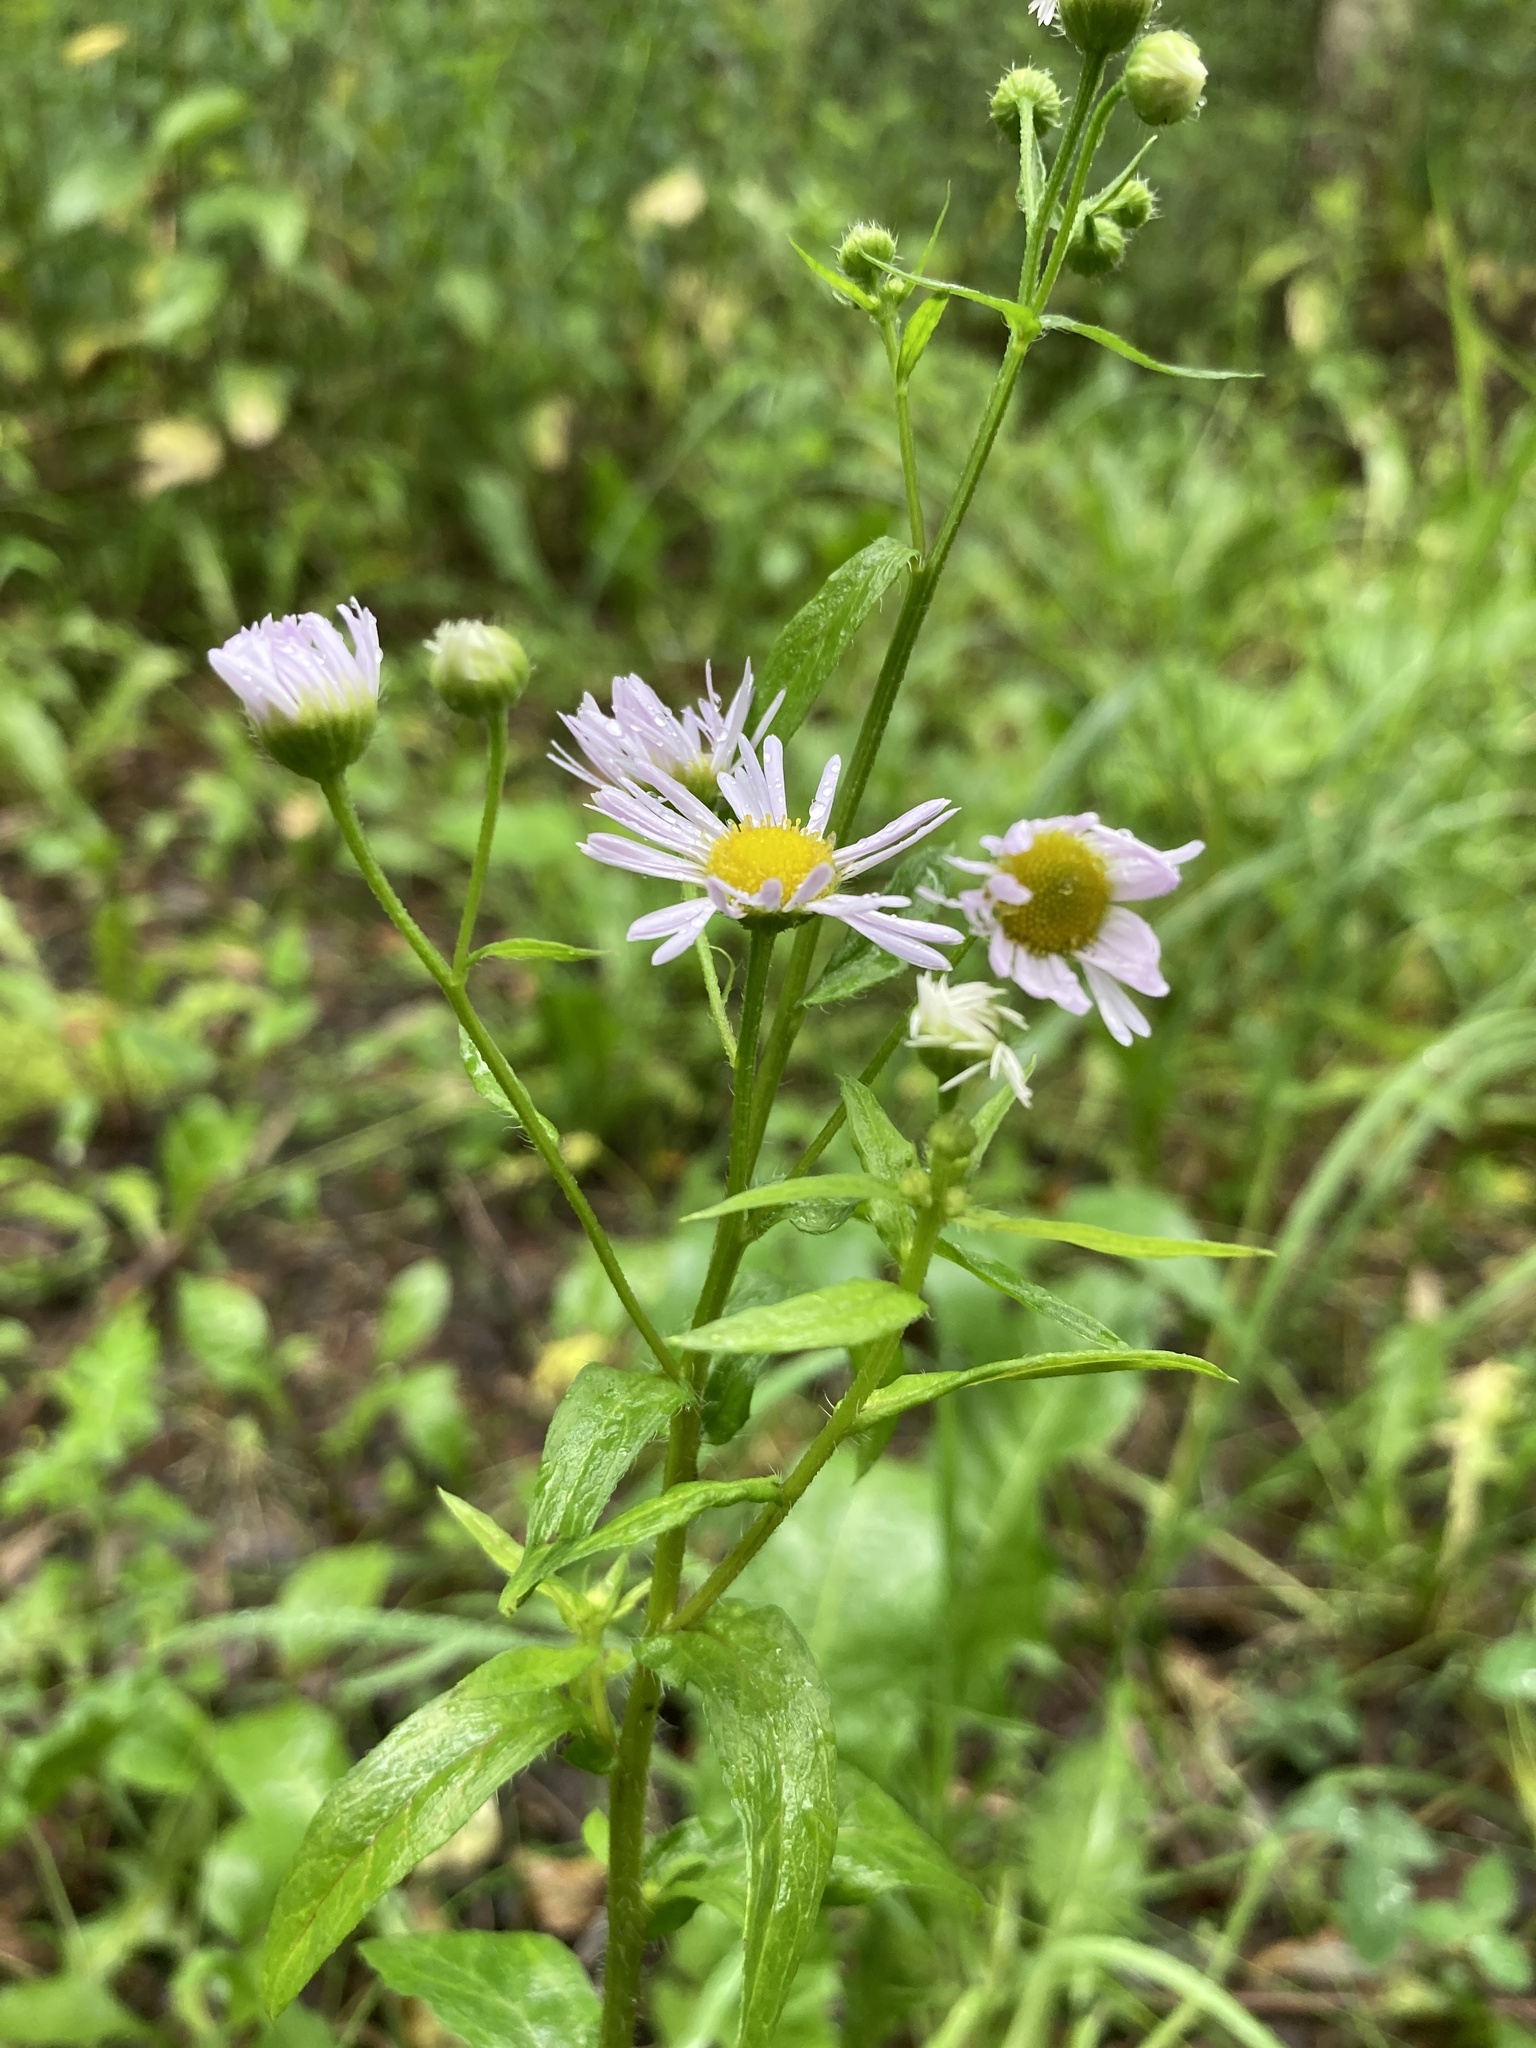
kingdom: Plantae
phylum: Tracheophyta
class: Magnoliopsida
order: Asterales
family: Asteraceae
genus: Erigeron
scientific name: Erigeron annuus
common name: Tall fleabane
